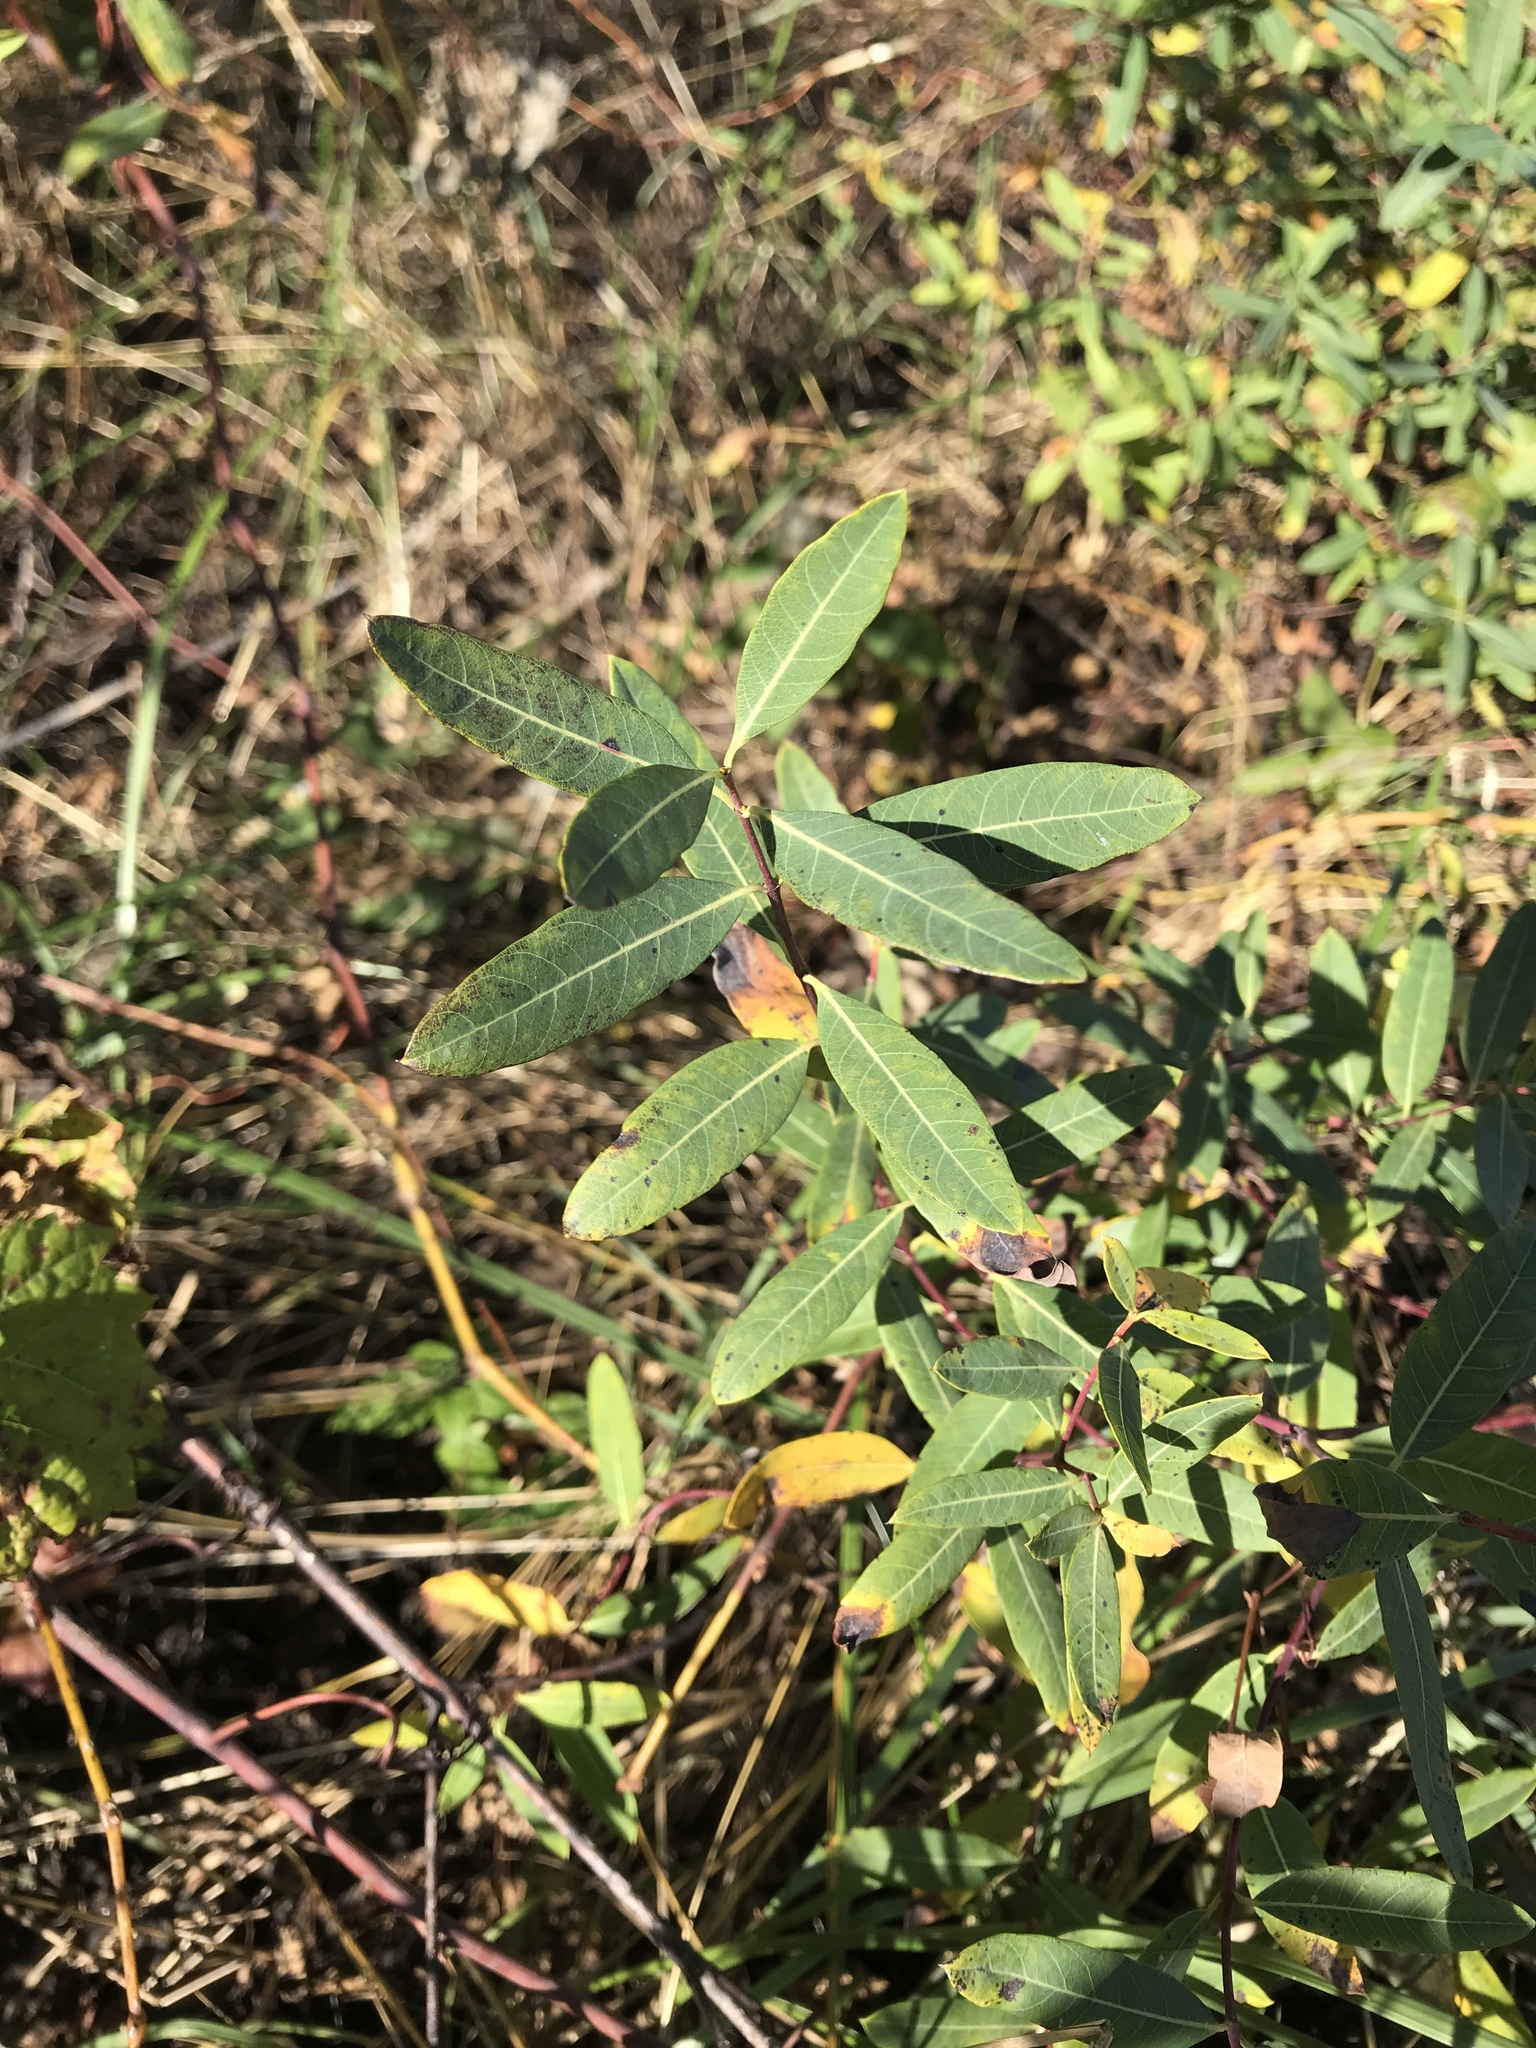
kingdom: Plantae
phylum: Tracheophyta
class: Magnoliopsida
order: Gentianales
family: Apocynaceae
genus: Apocynum
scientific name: Apocynum cannabinum
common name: Hemp dogbane
